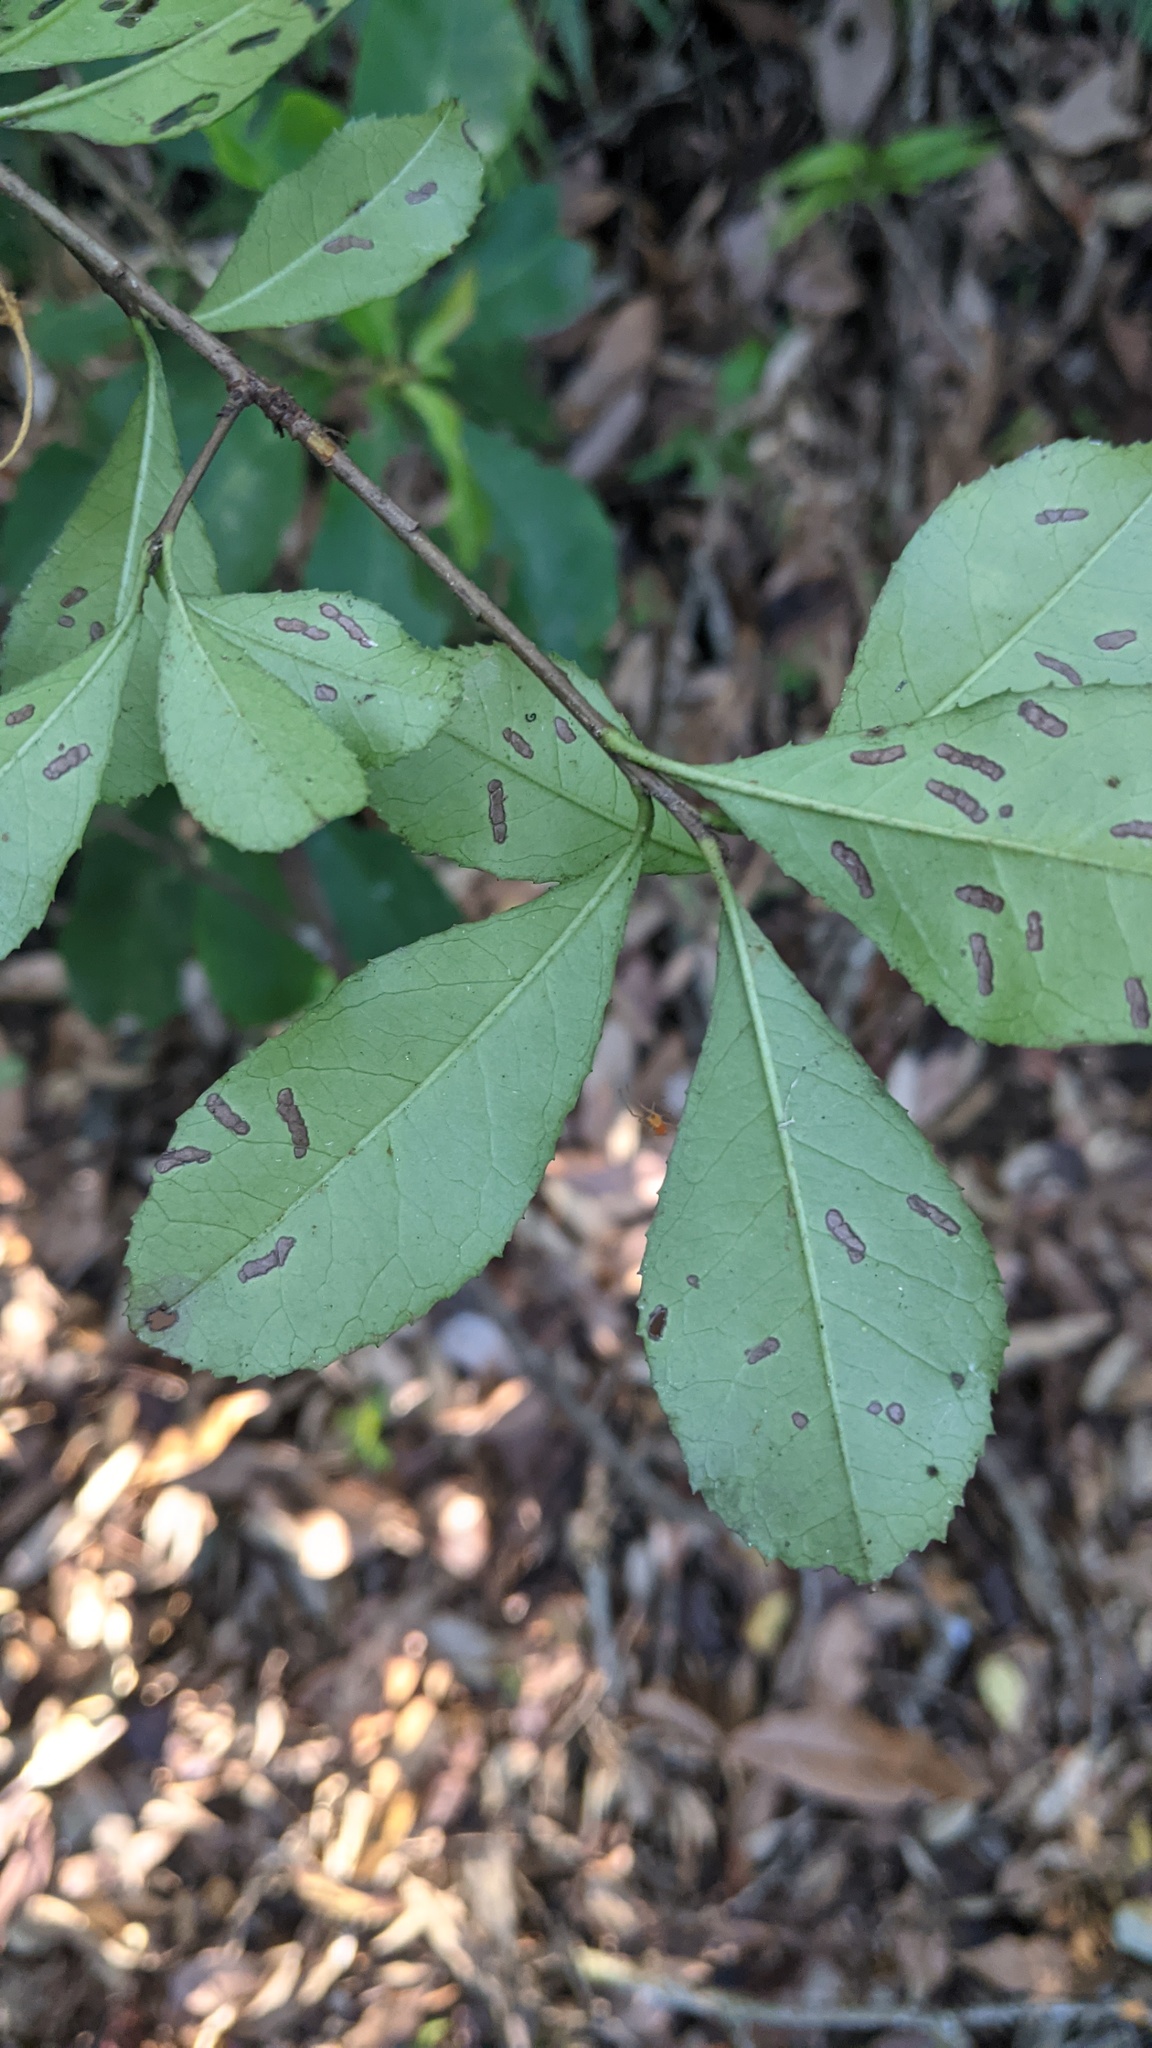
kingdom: Plantae
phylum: Tracheophyta
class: Magnoliopsida
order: Rosales
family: Rosaceae
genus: Photinia
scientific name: Photinia serratifolia
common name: Taiwanese photinia
